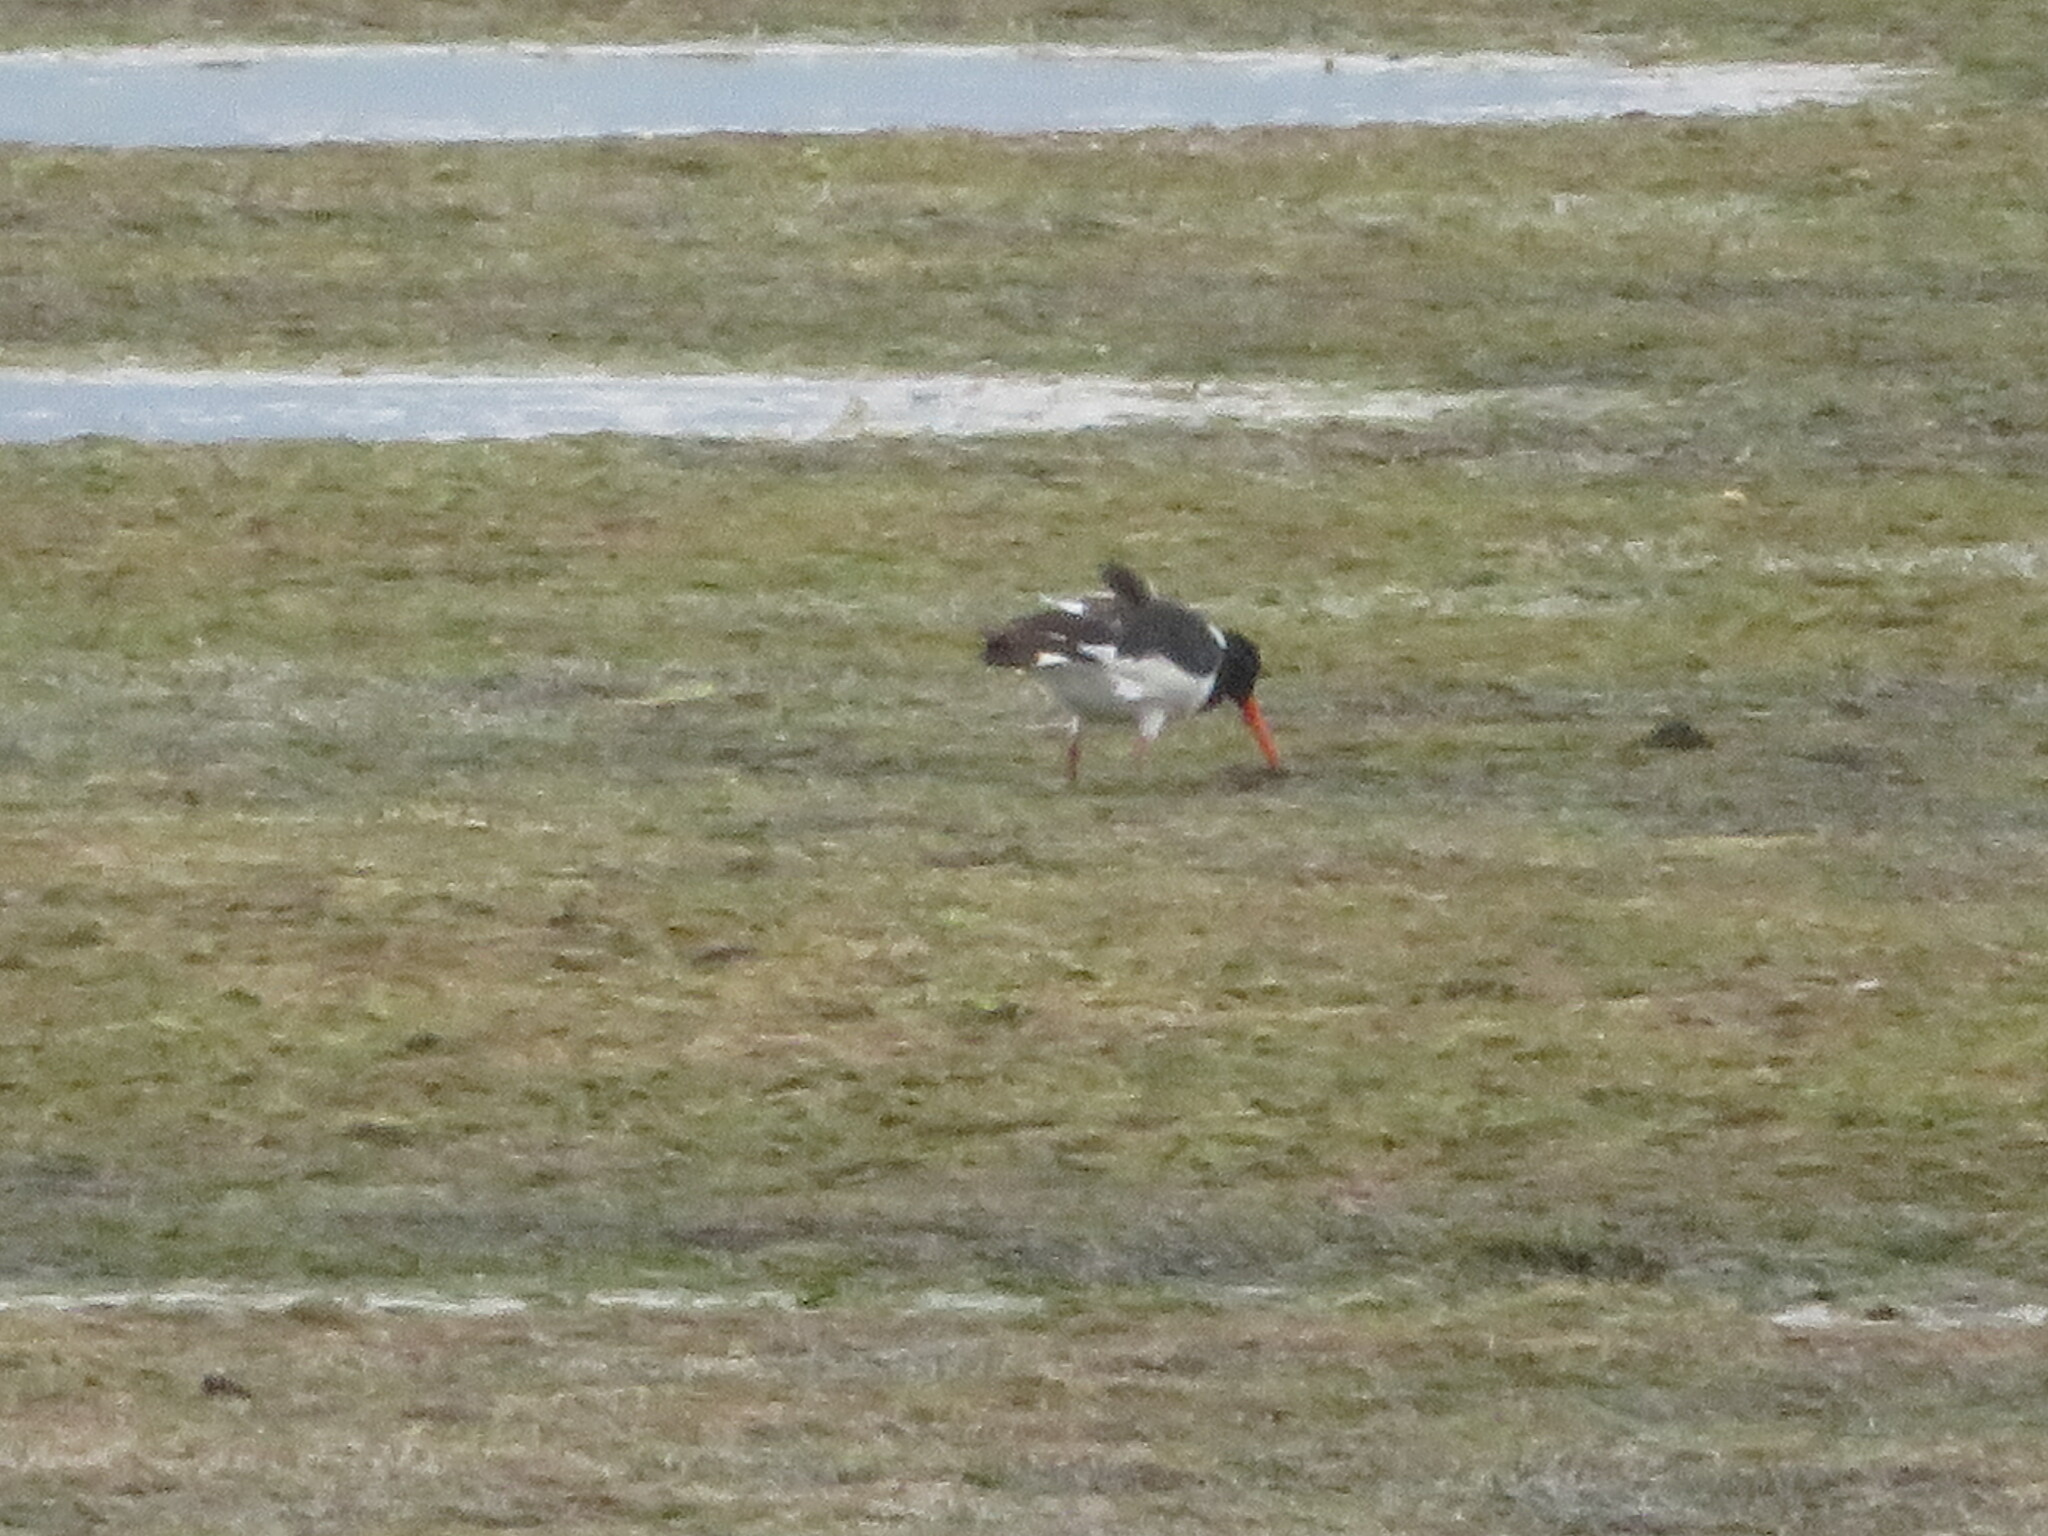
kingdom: Animalia
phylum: Chordata
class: Aves
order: Charadriiformes
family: Haematopodidae
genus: Haematopus
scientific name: Haematopus ostralegus
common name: Eurasian oystercatcher
